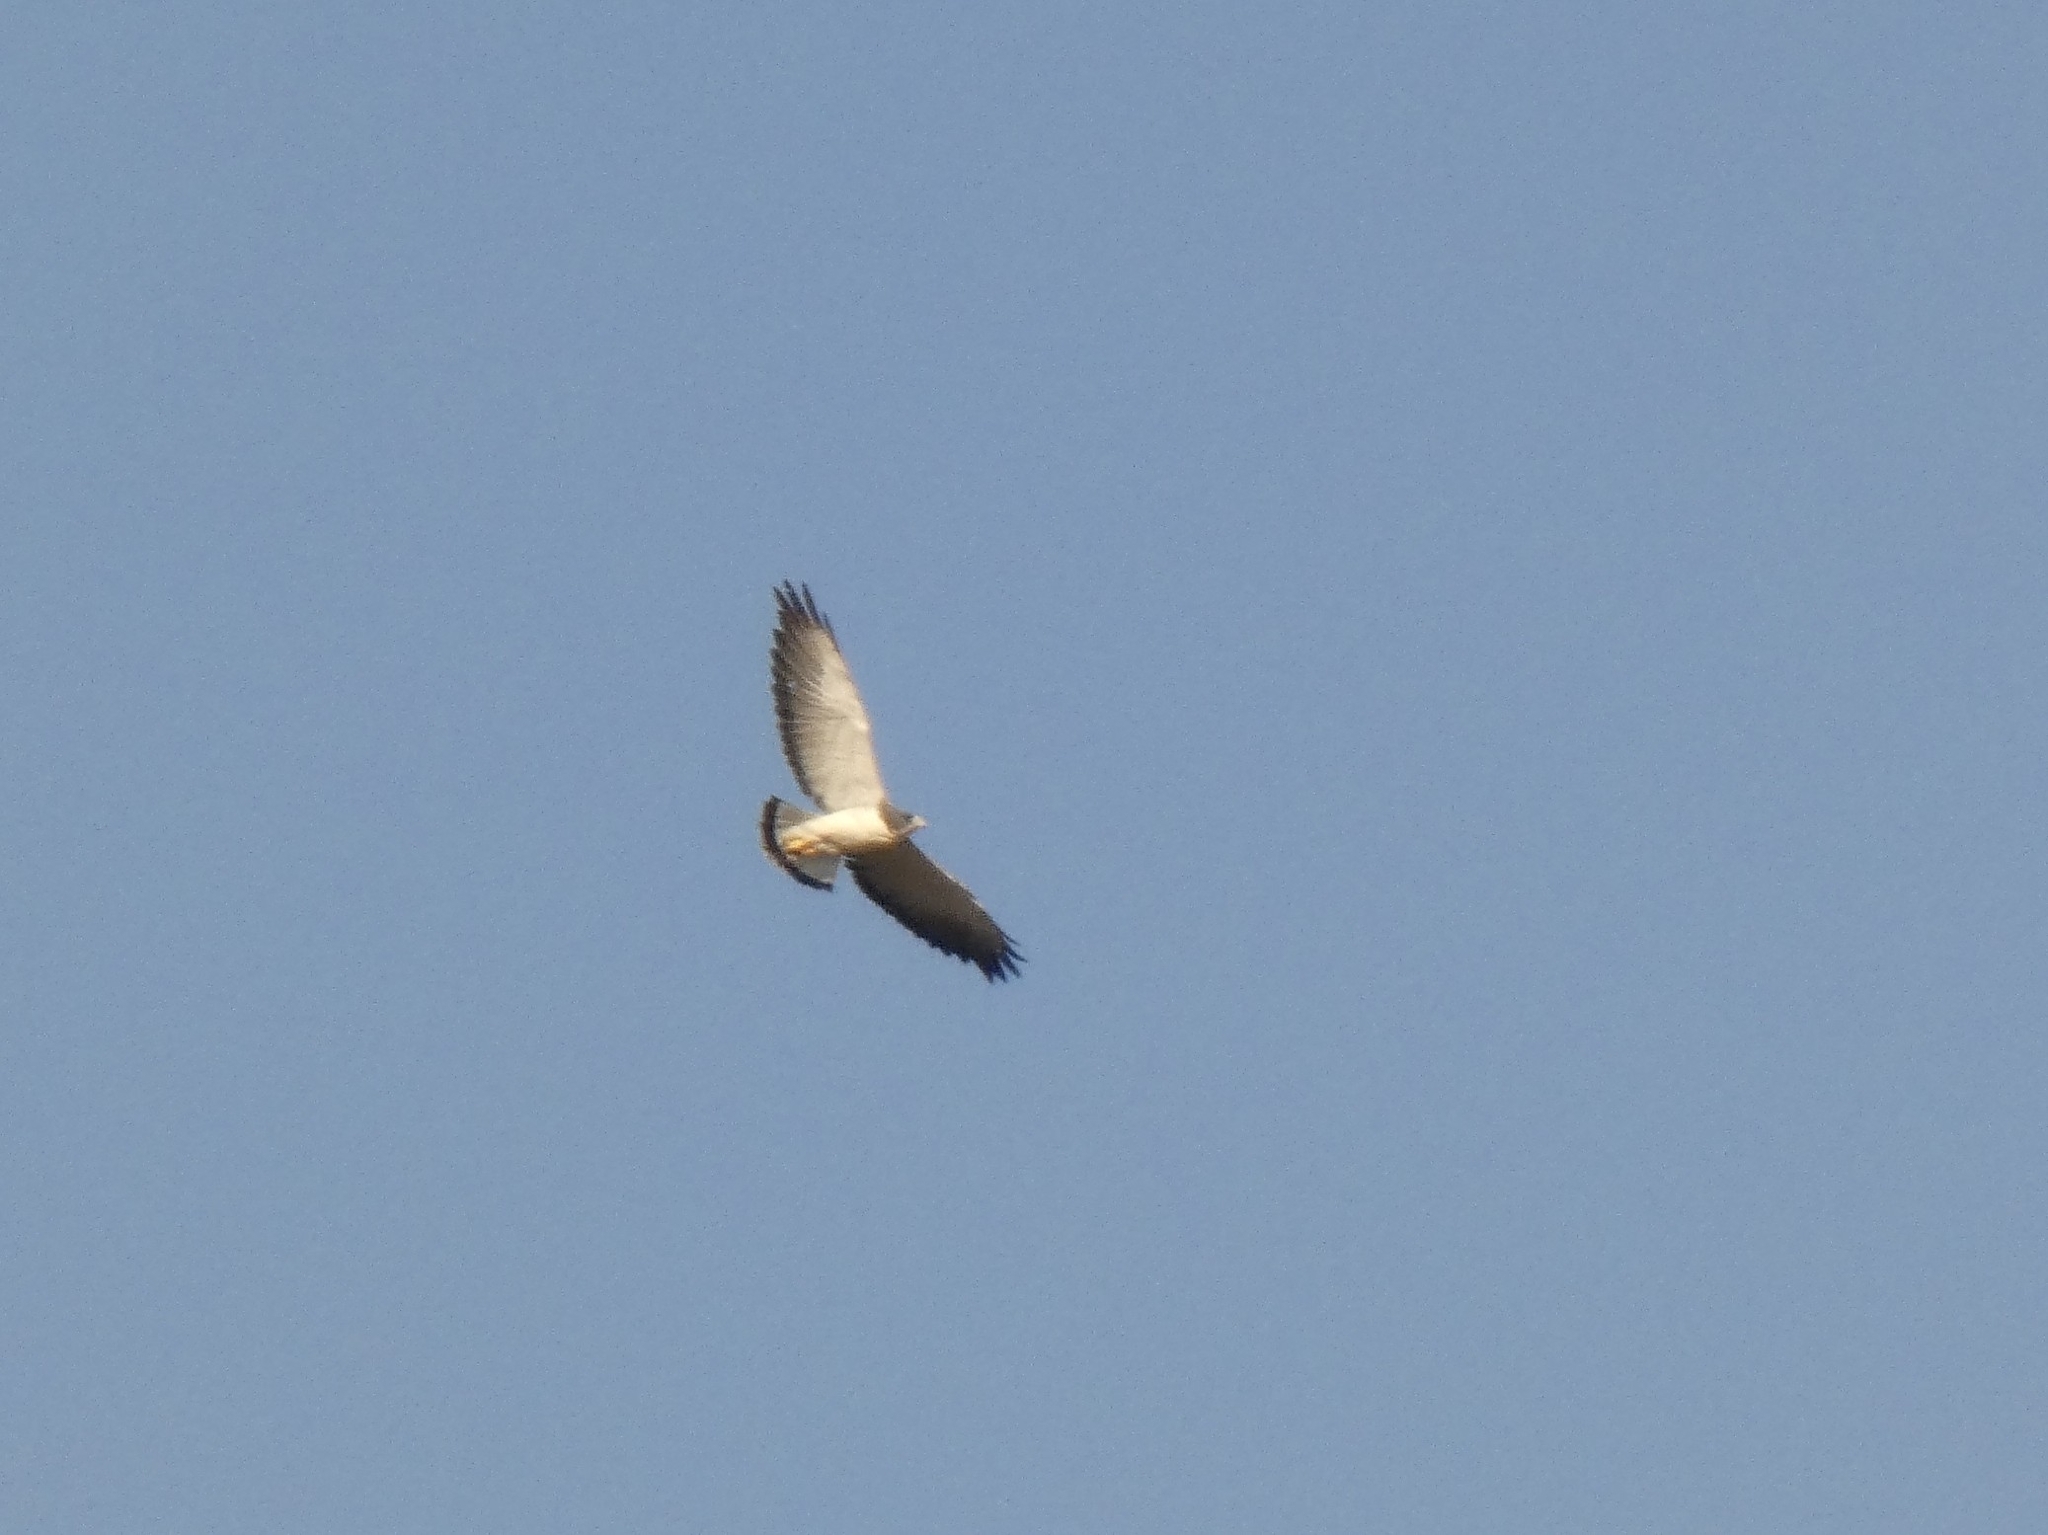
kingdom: Animalia
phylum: Chordata
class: Aves
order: Accipitriformes
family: Accipitridae
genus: Buteo
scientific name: Buteo albicaudatus
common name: White-tailed hawk
